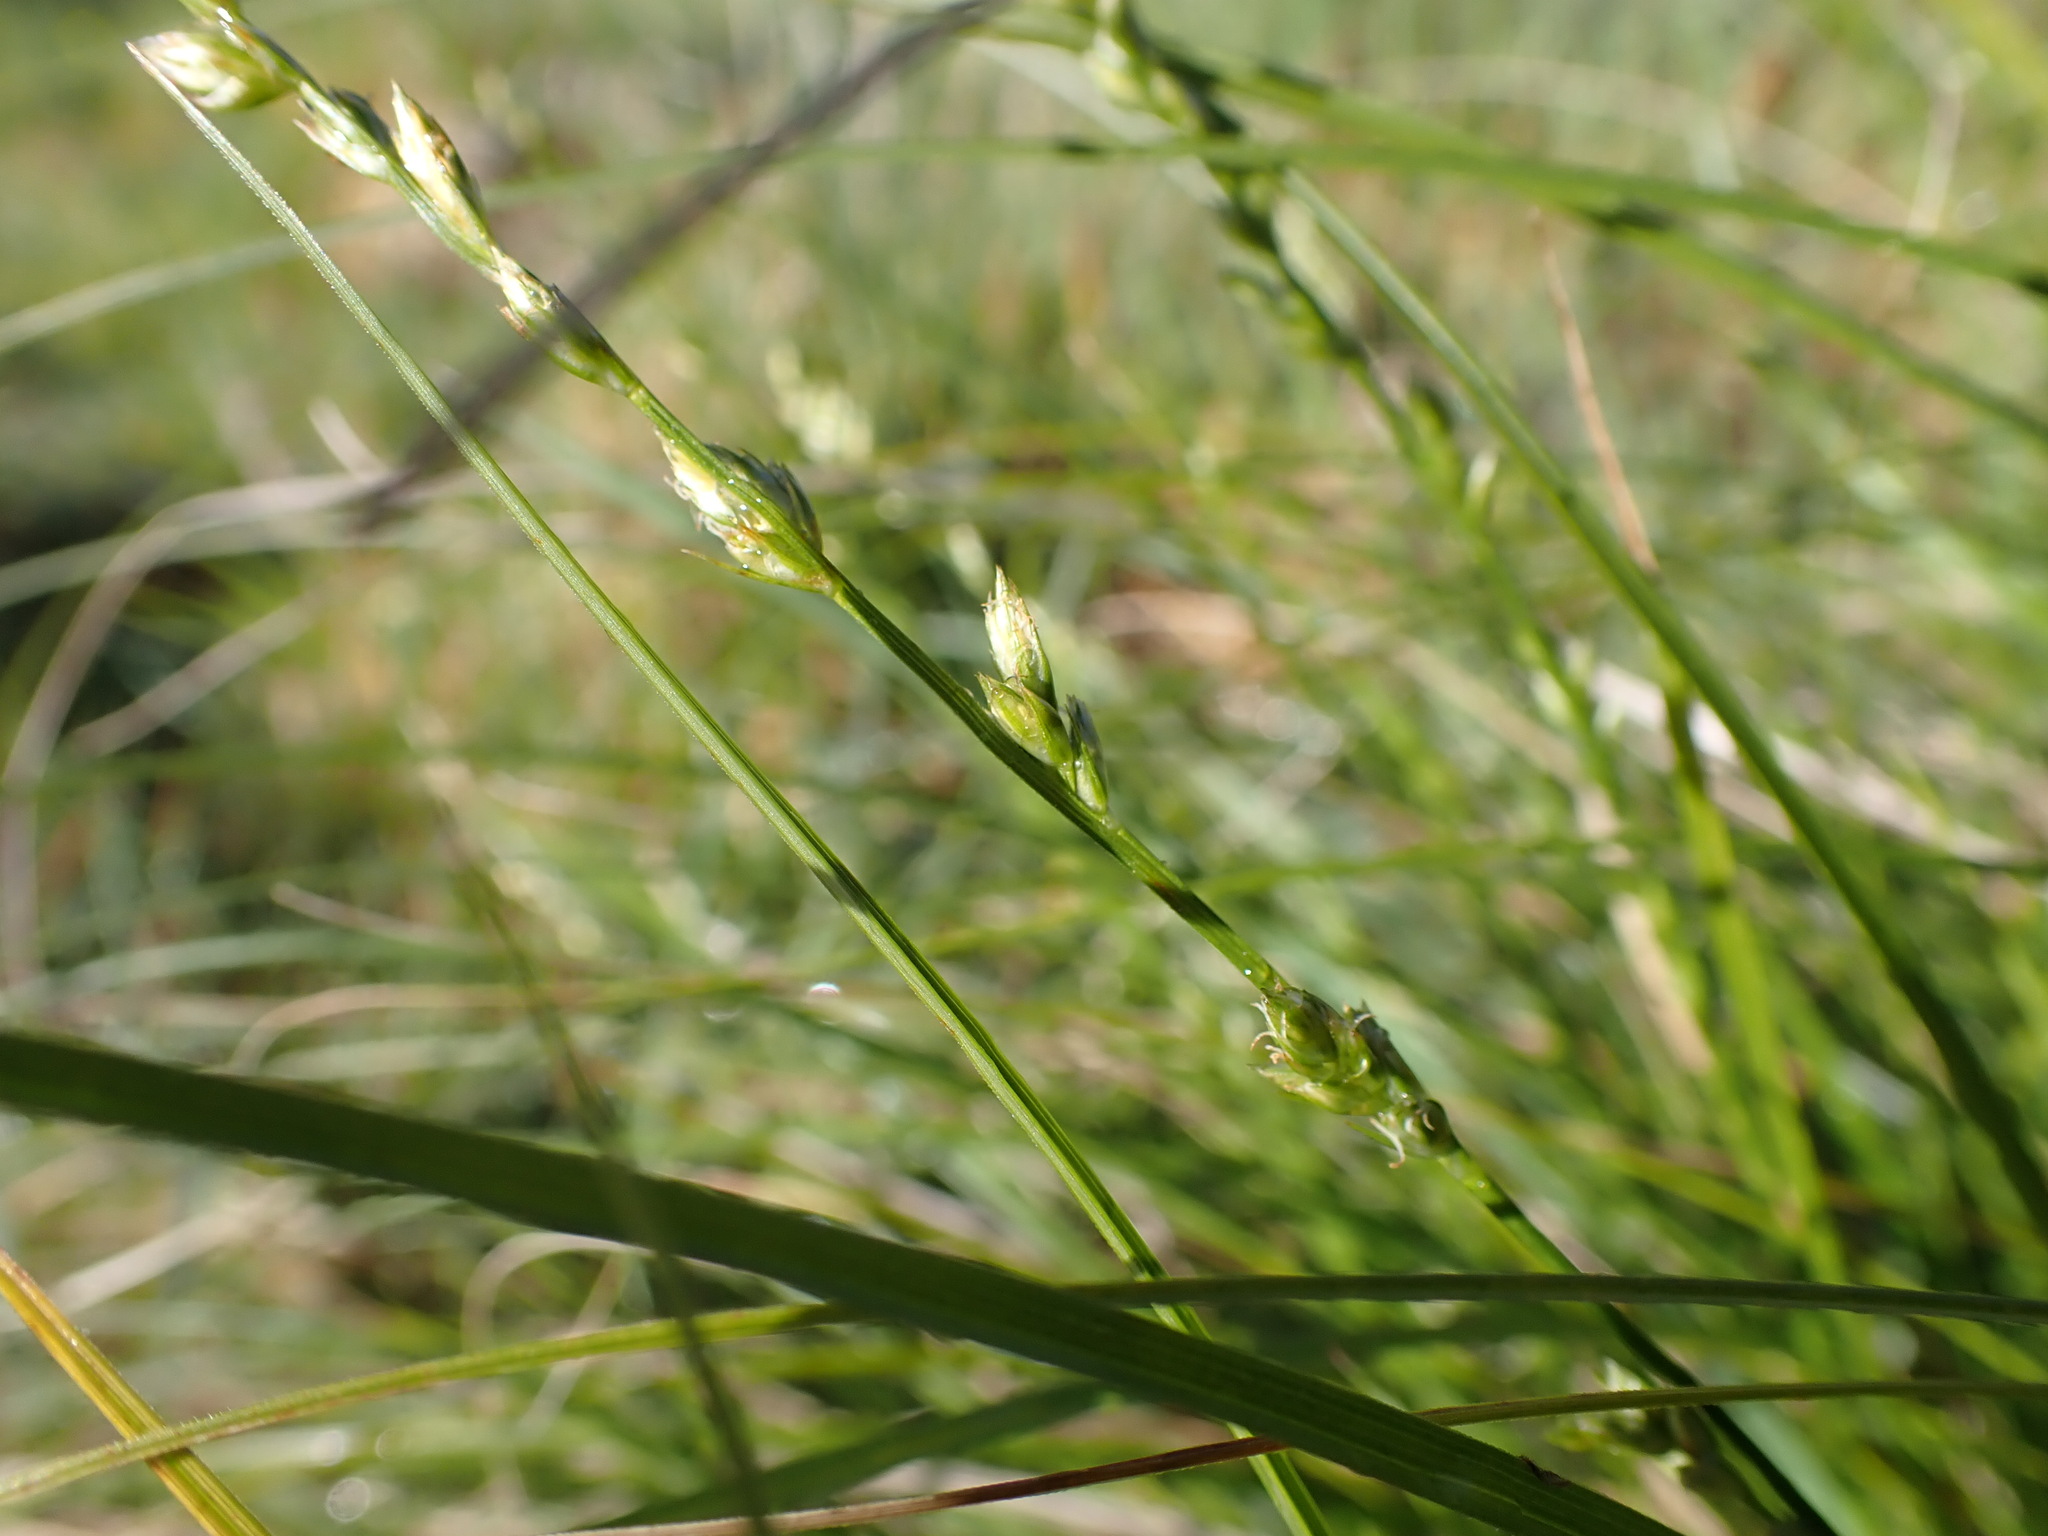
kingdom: Plantae
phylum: Tracheophyta
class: Liliopsida
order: Poales
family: Cyperaceae
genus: Carex
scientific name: Carex divulsa
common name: Grassland sedge
